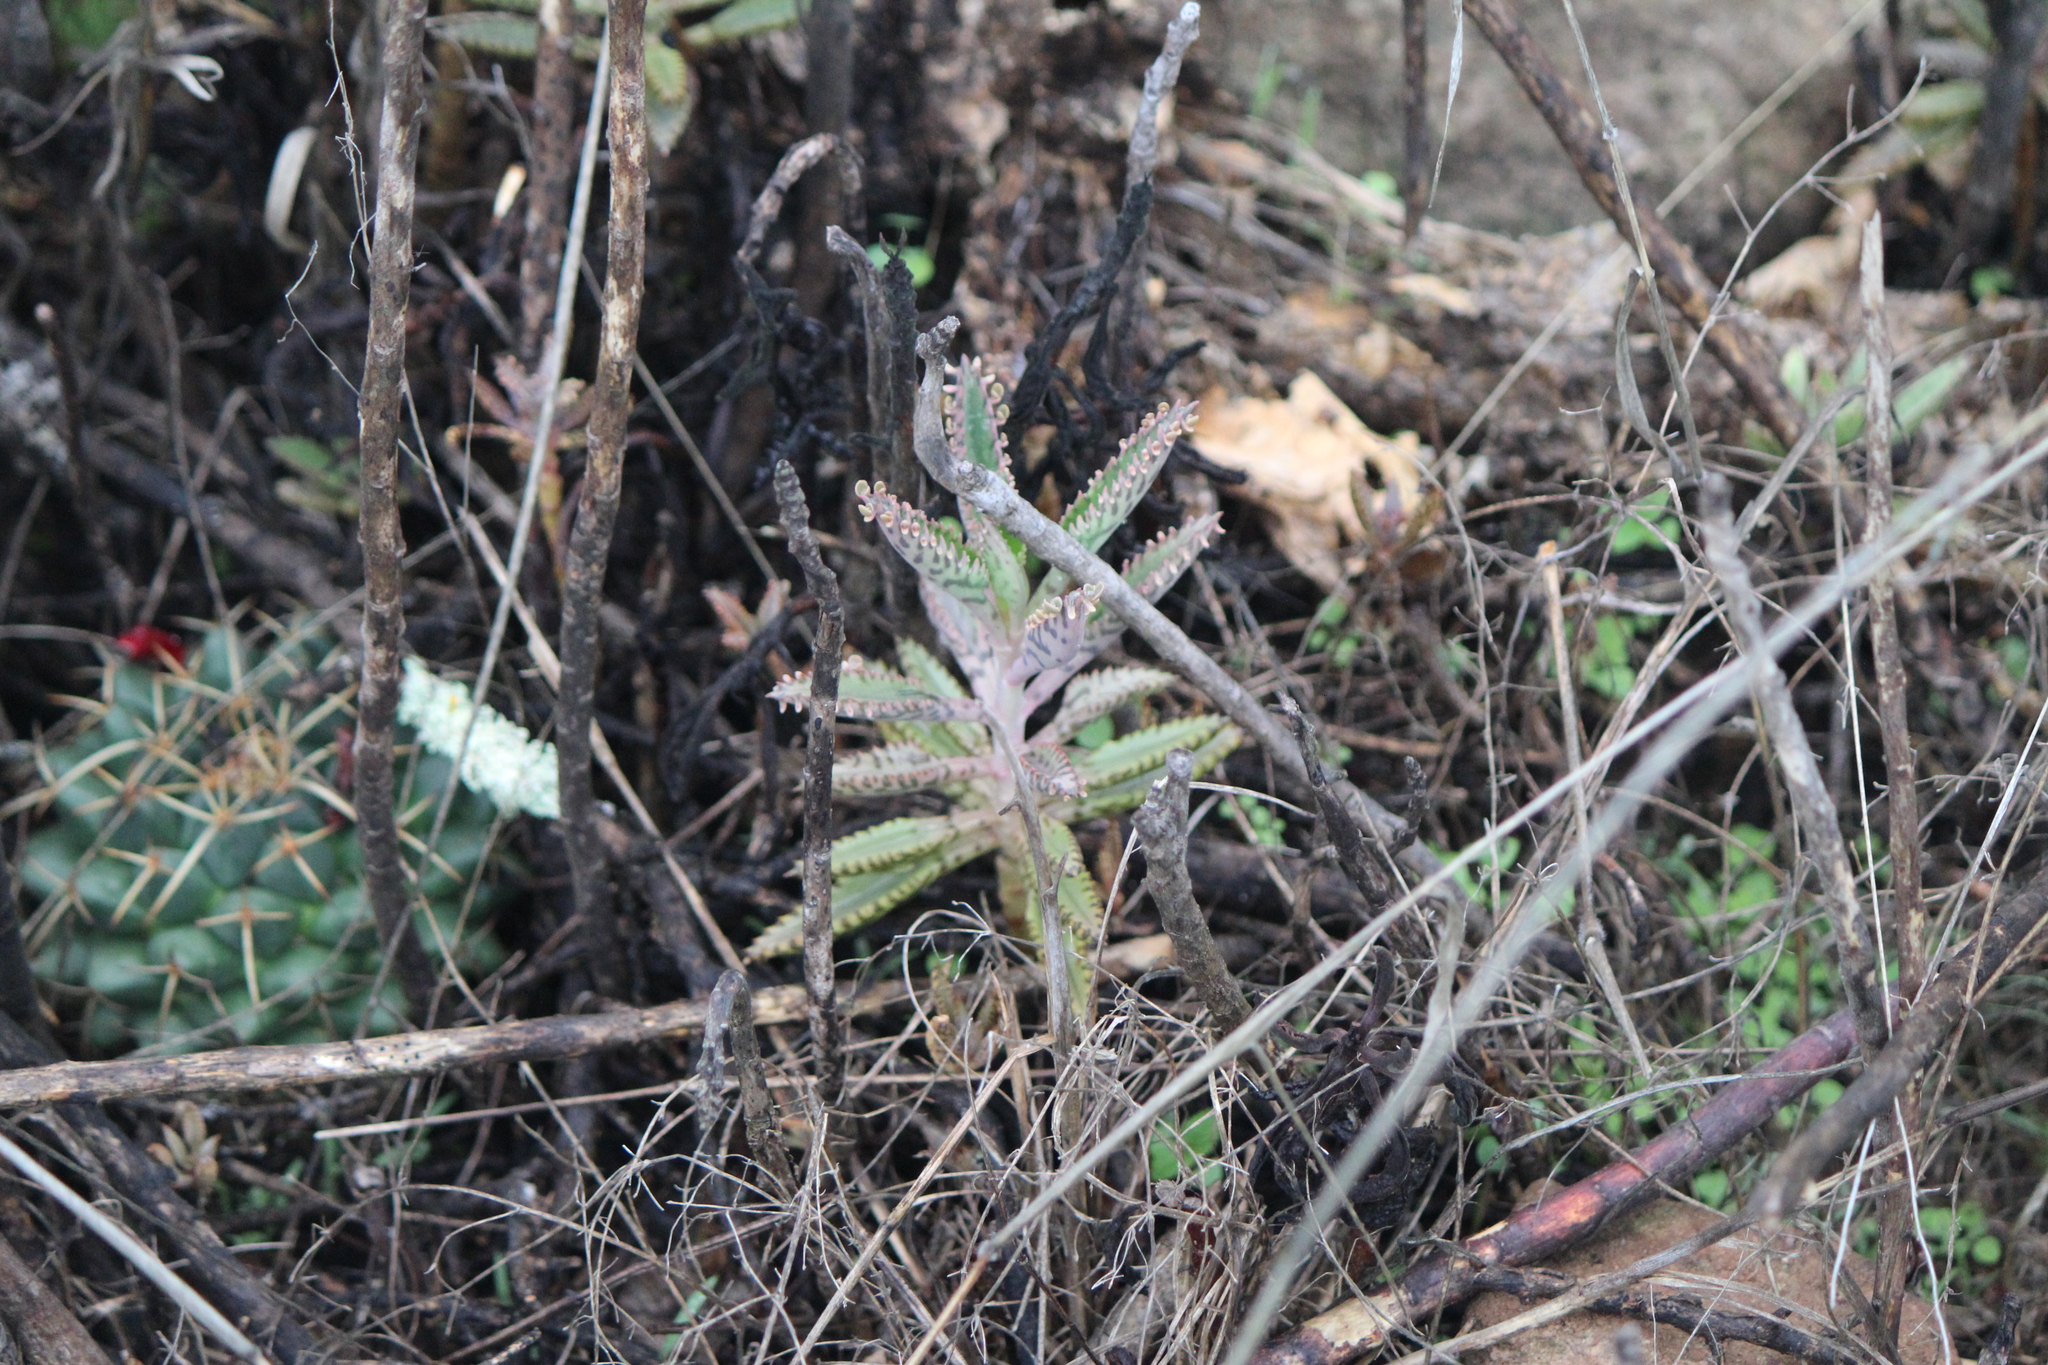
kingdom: Plantae
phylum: Tracheophyta
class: Magnoliopsida
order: Saxifragales
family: Crassulaceae
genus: Kalanchoe
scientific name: Kalanchoe houghtonii
